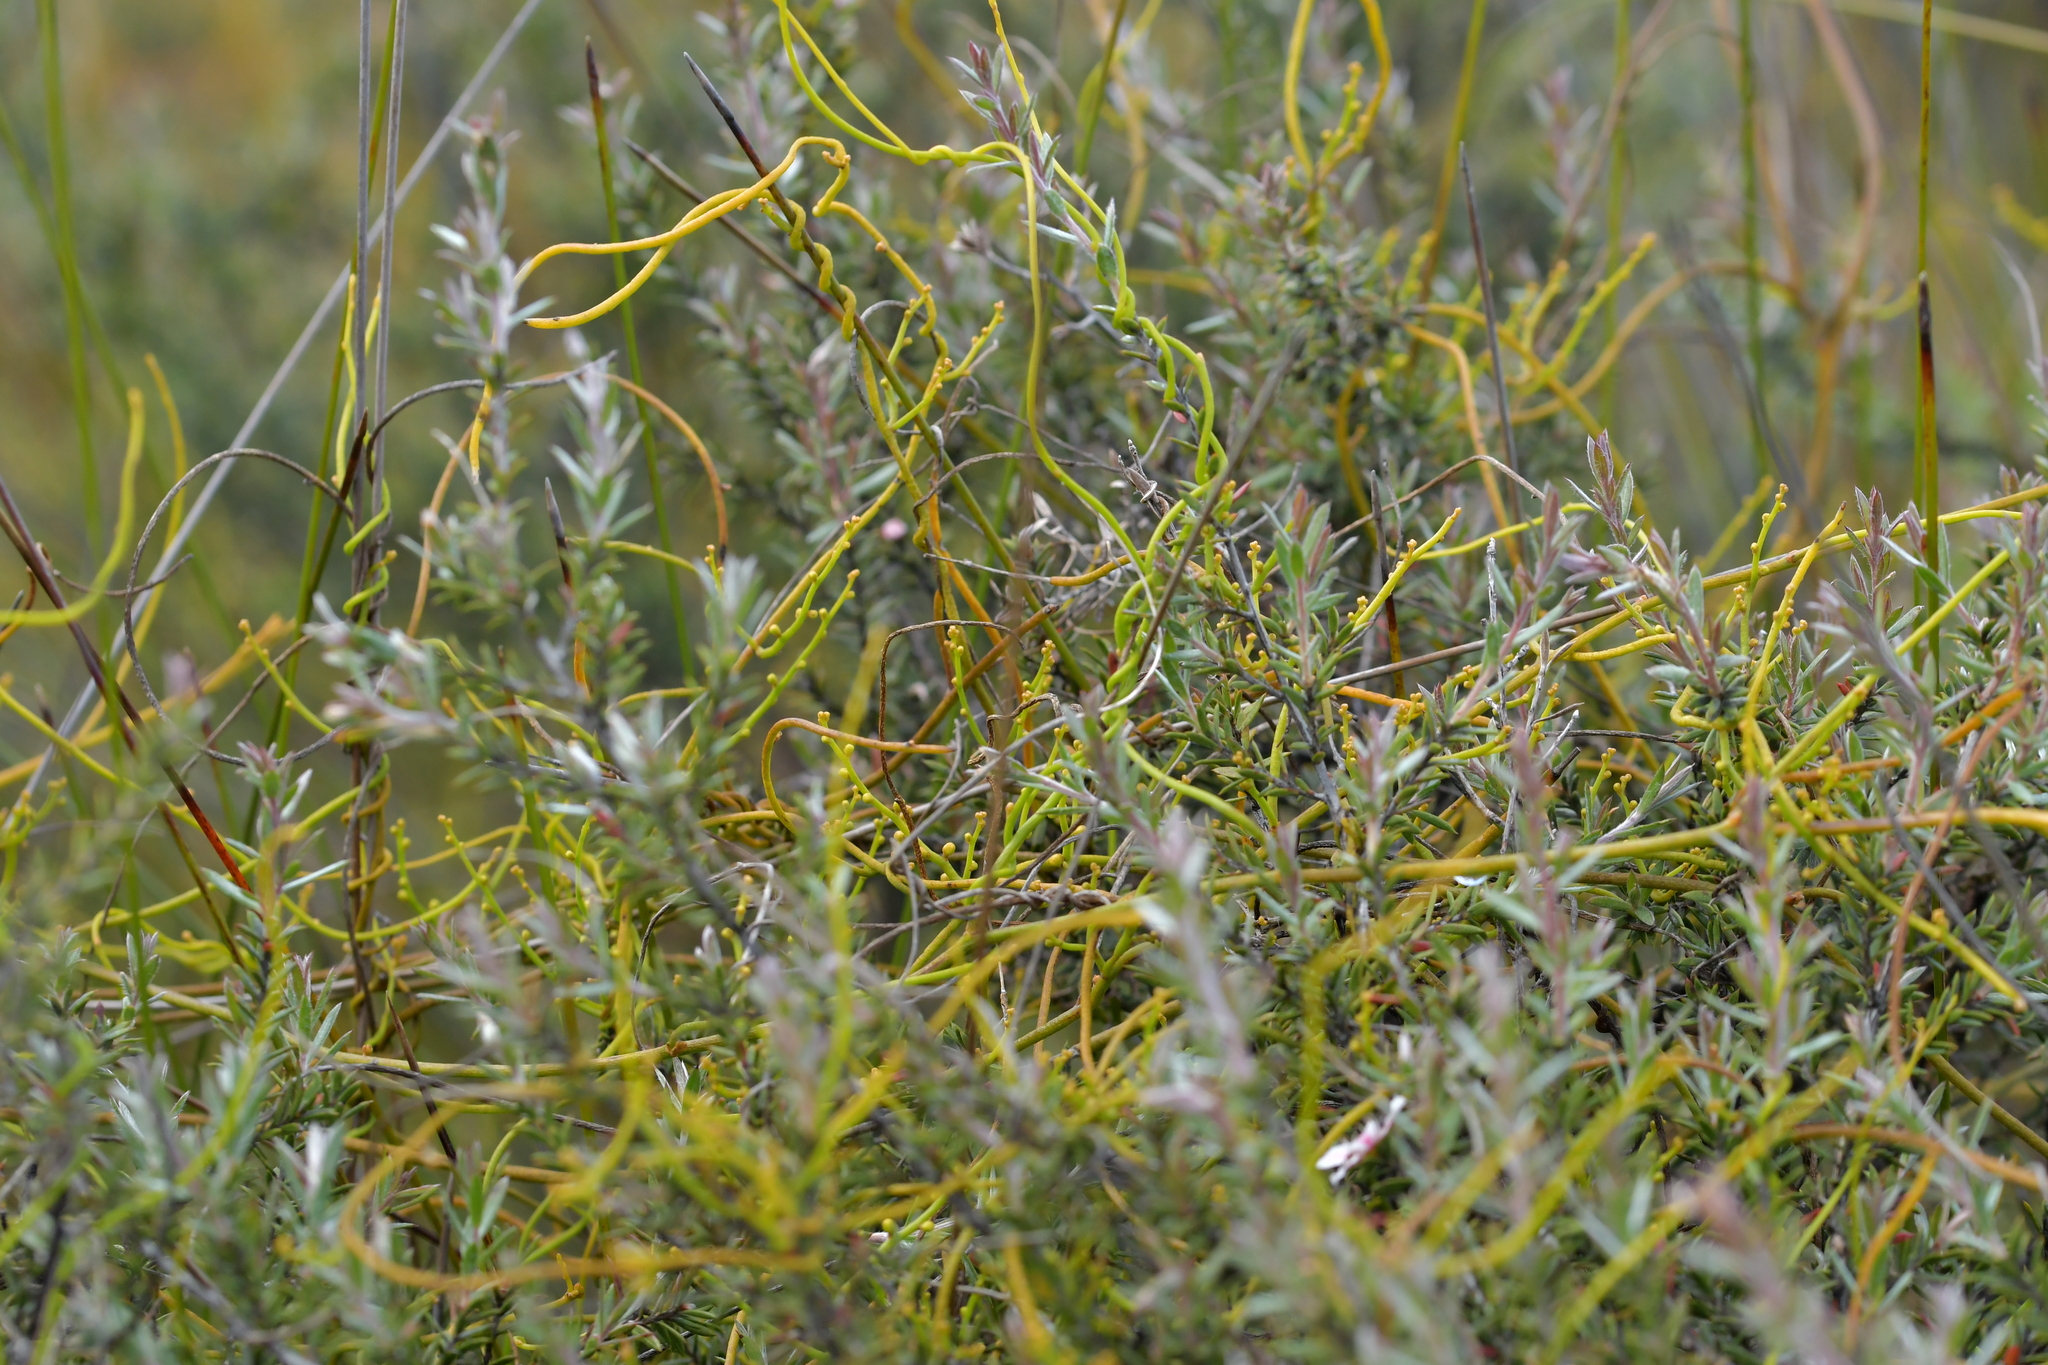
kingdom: Plantae
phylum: Tracheophyta
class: Magnoliopsida
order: Laurales
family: Lauraceae
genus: Cassytha
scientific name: Cassytha paniculata
